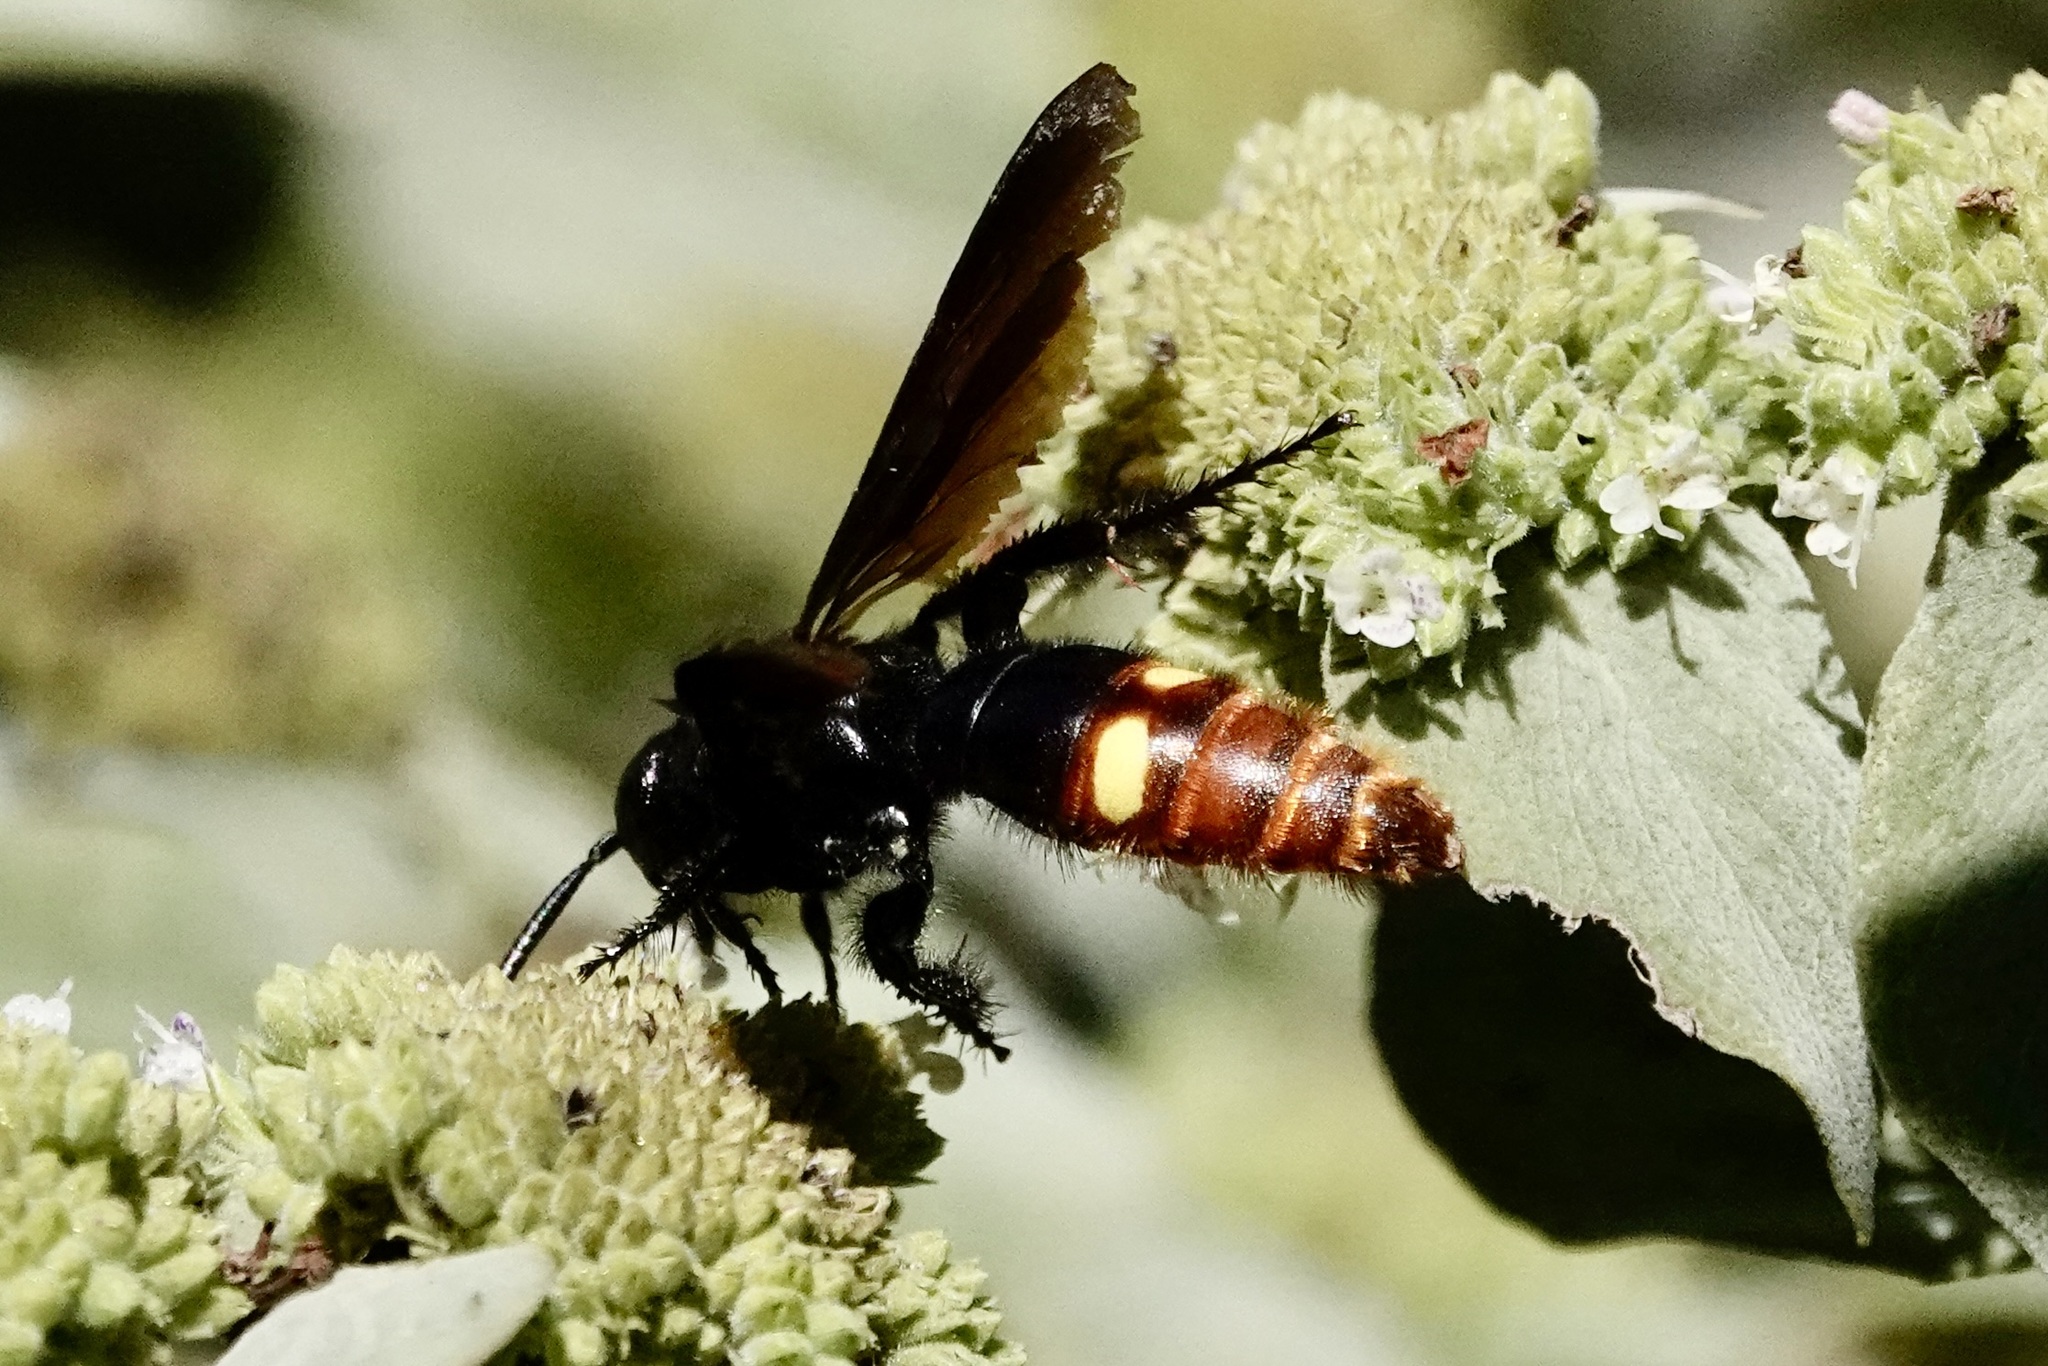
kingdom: Animalia
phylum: Arthropoda
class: Insecta
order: Hymenoptera
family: Scoliidae
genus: Scolia
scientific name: Scolia dubia
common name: Blue-winged scoliid wasp
